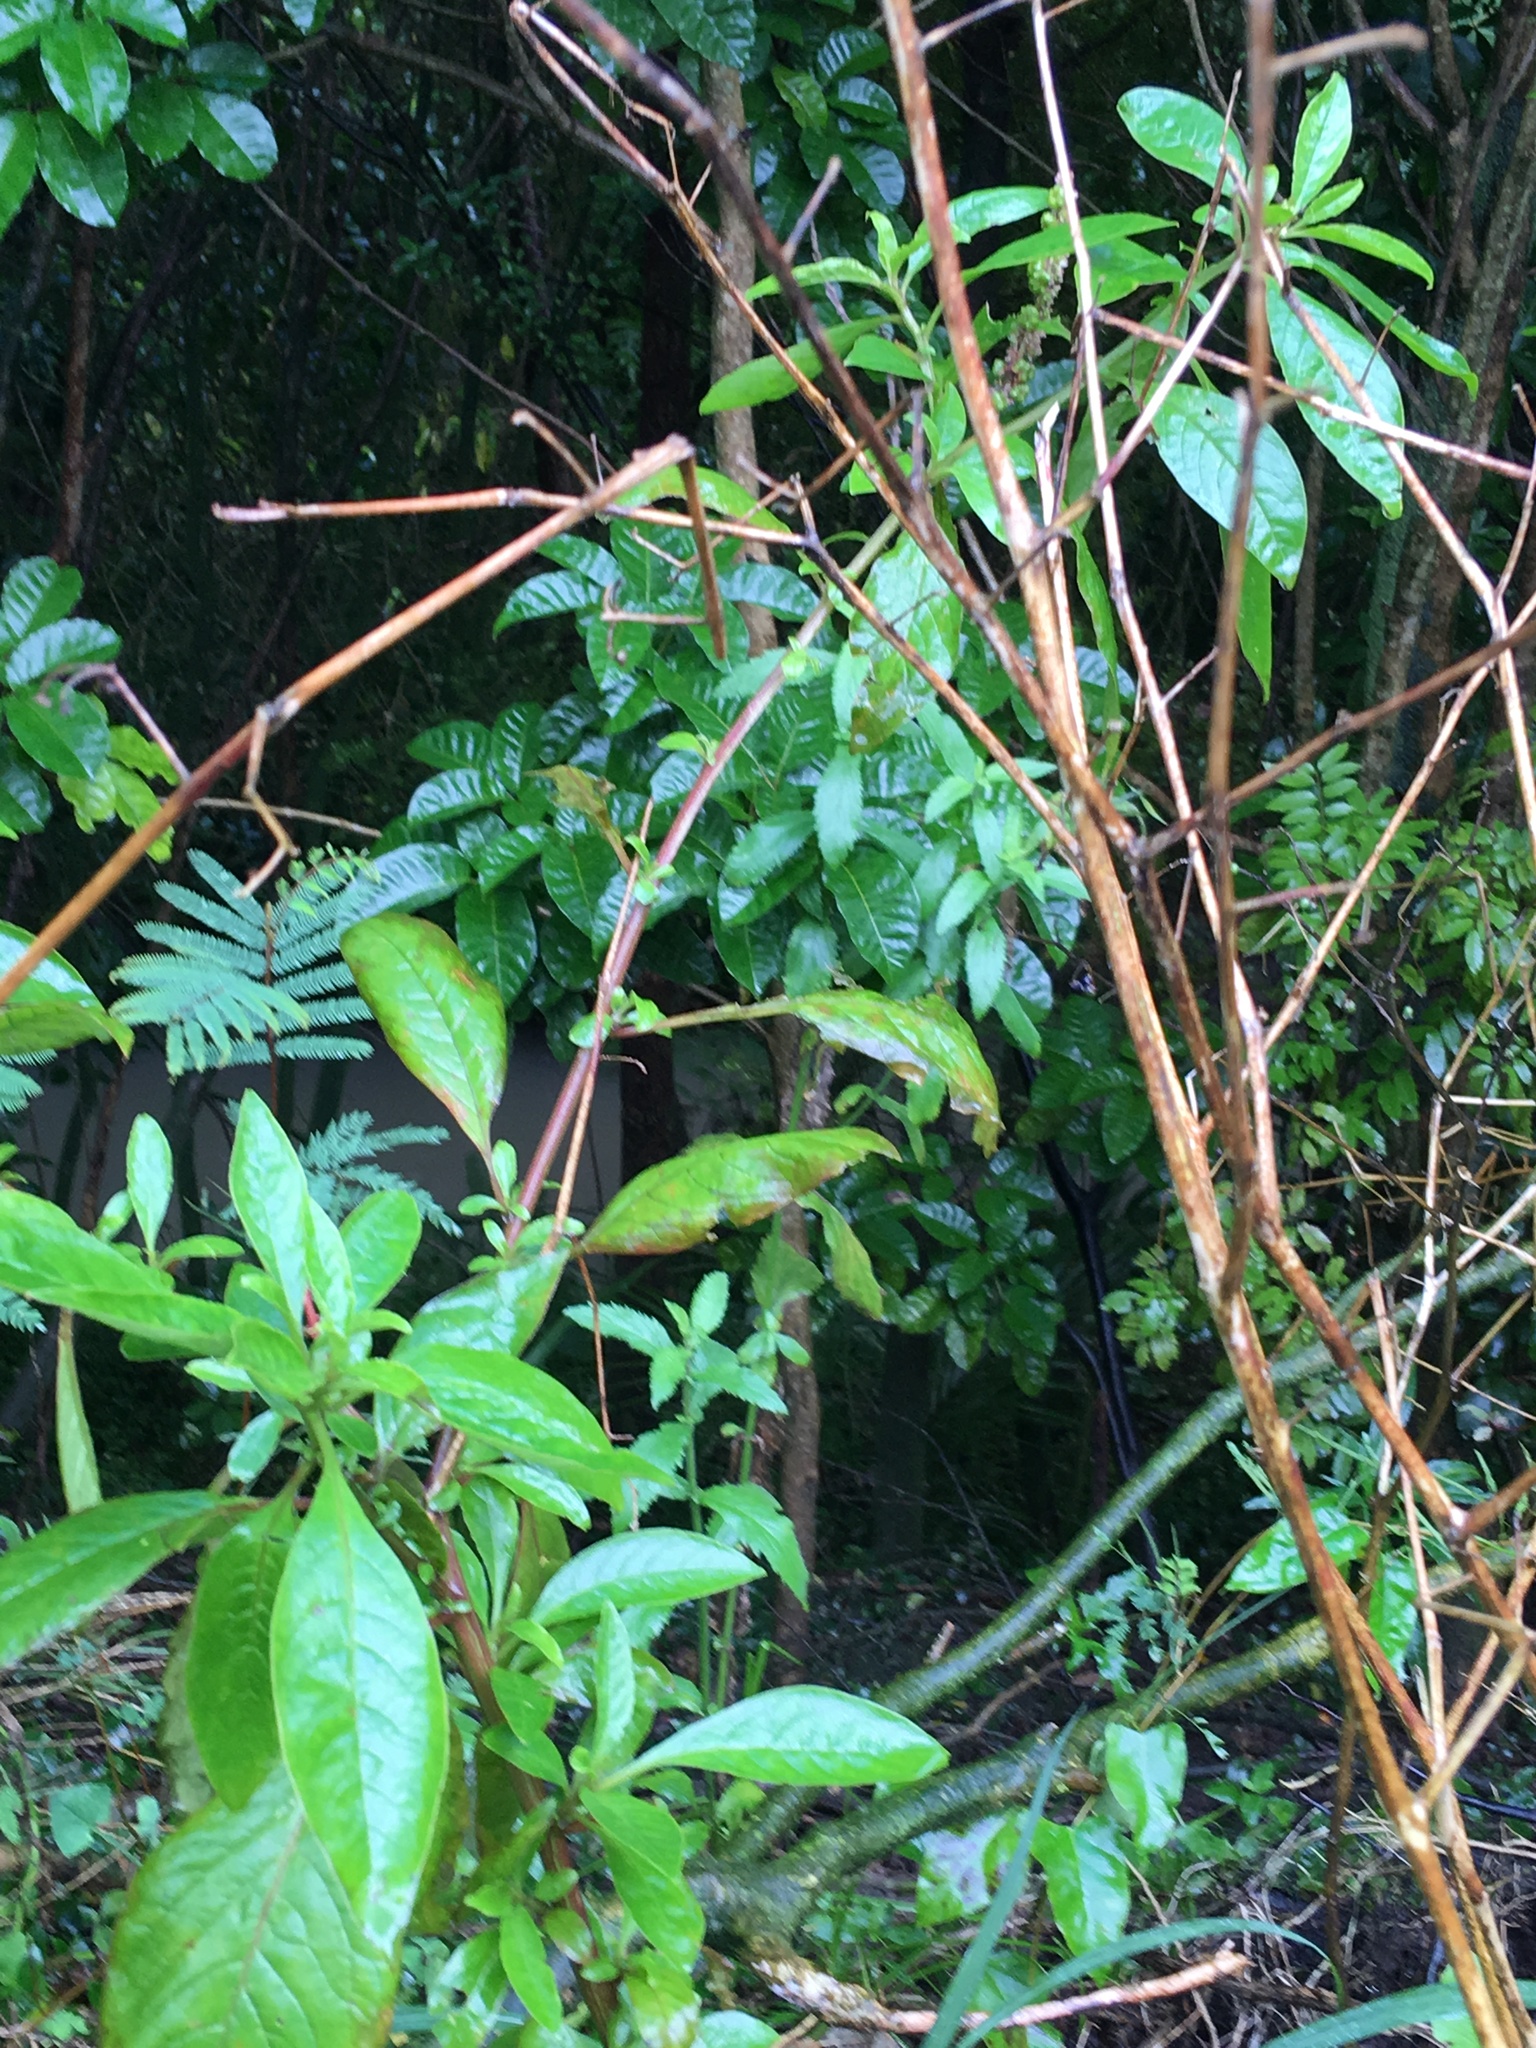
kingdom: Plantae
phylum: Tracheophyta
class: Magnoliopsida
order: Fabales
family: Fabaceae
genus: Paraserianthes
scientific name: Paraserianthes lophantha
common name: Plume albizia
